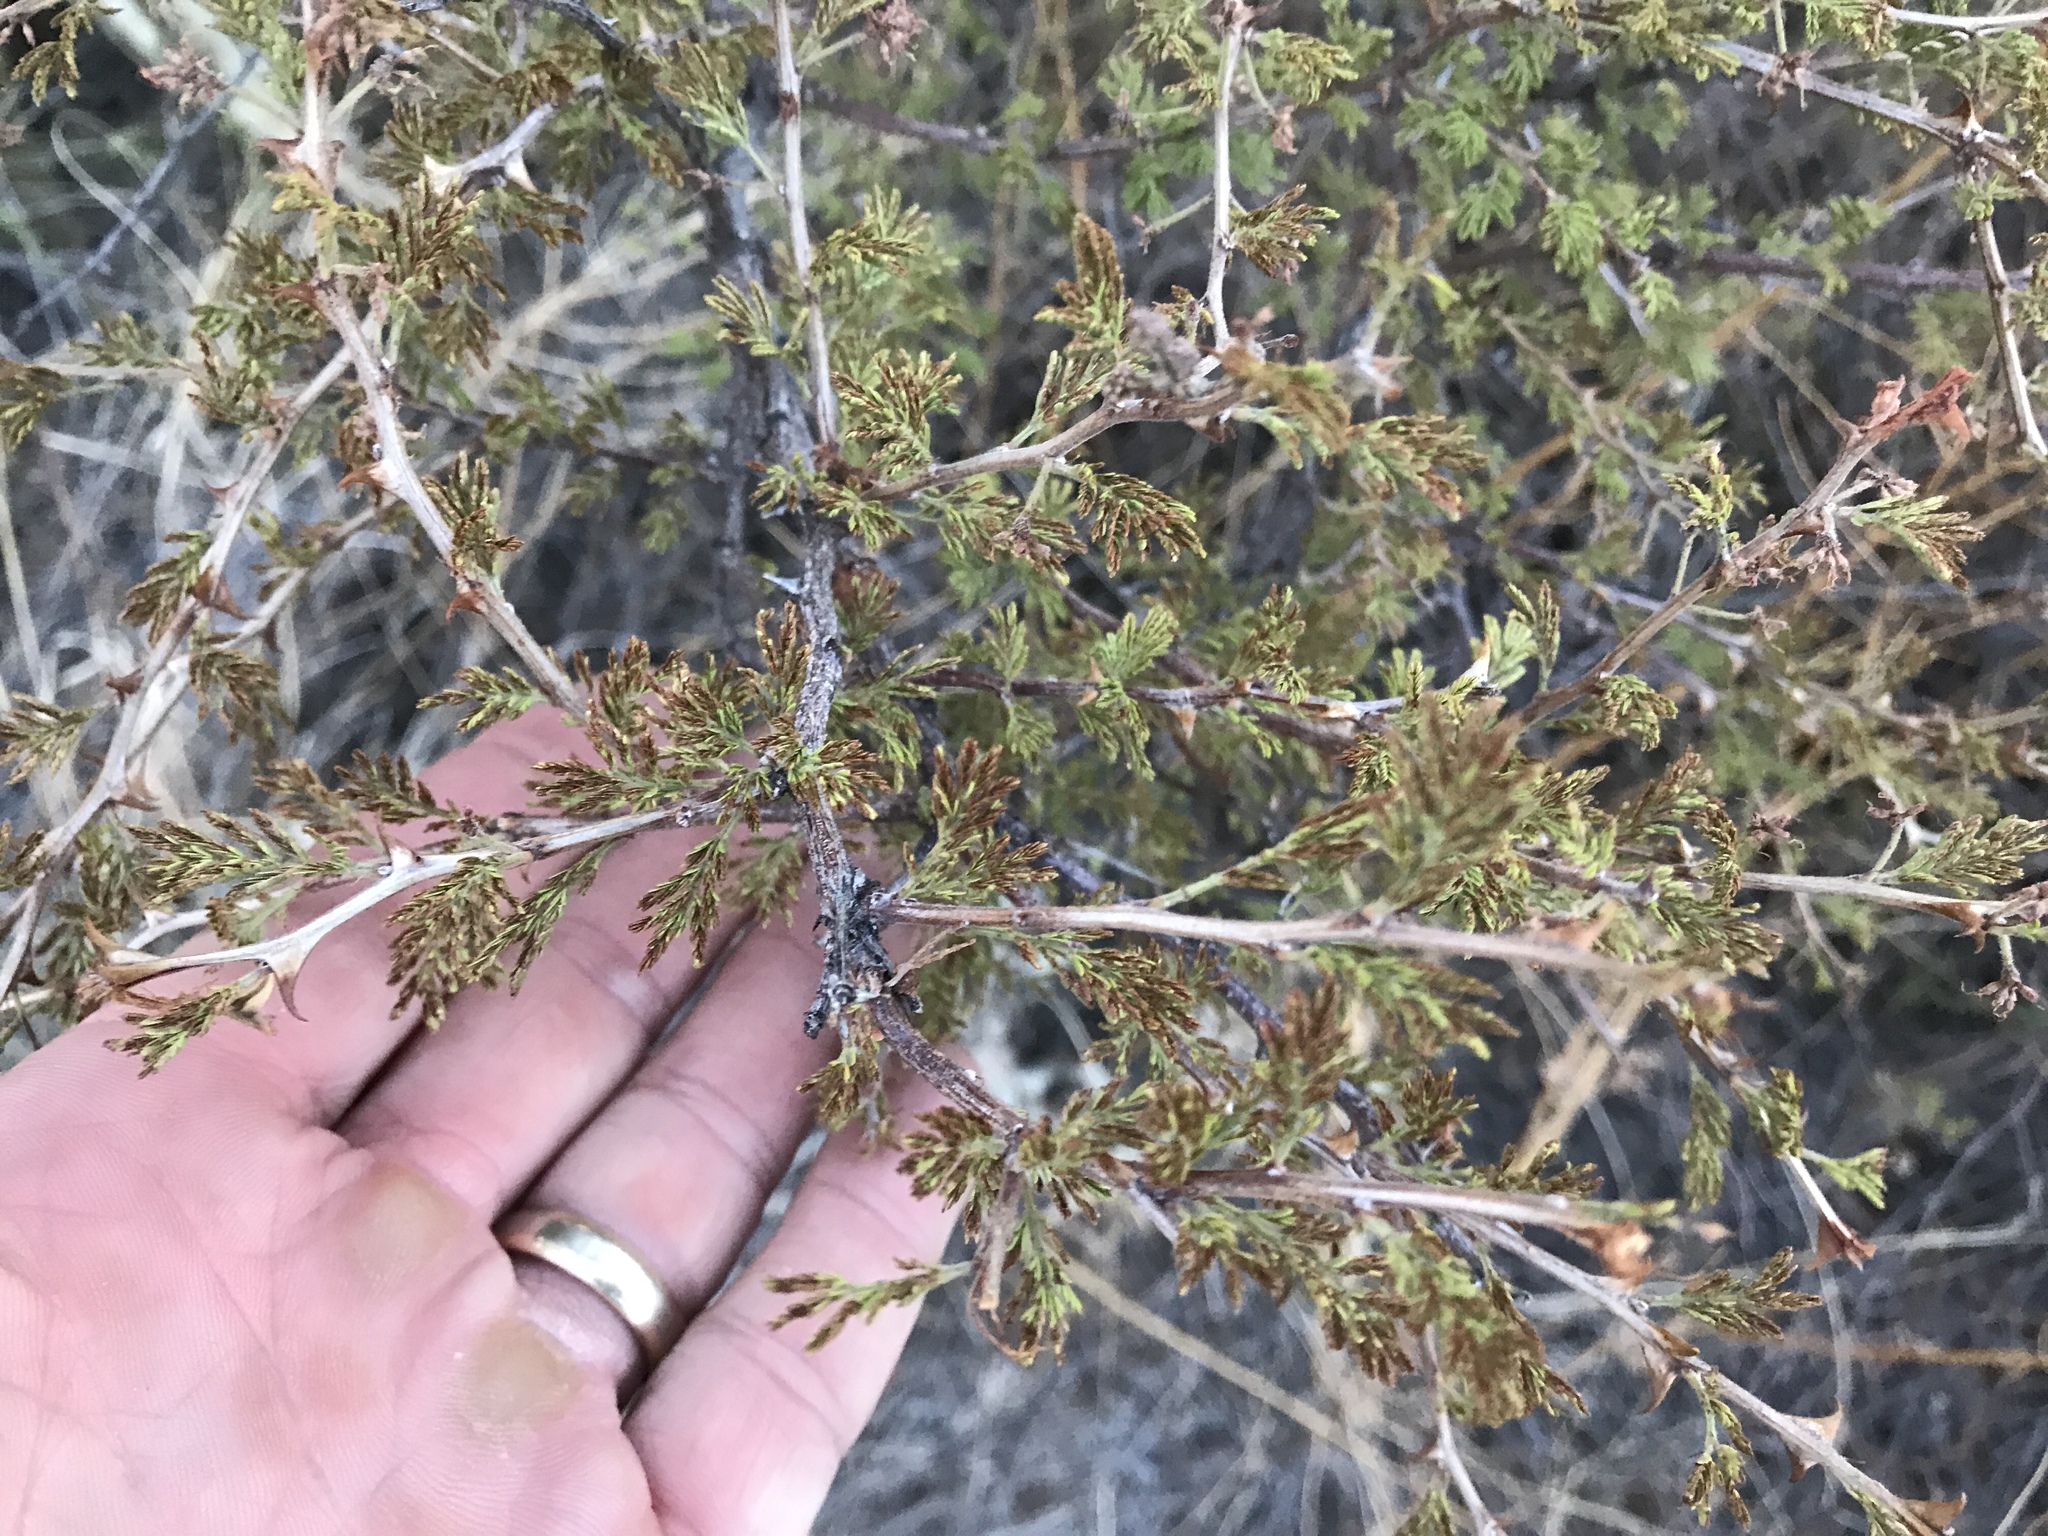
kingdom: Plantae
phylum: Tracheophyta
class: Magnoliopsida
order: Fabales
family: Fabaceae
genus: Mimosa
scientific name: Mimosa aculeaticarpa
